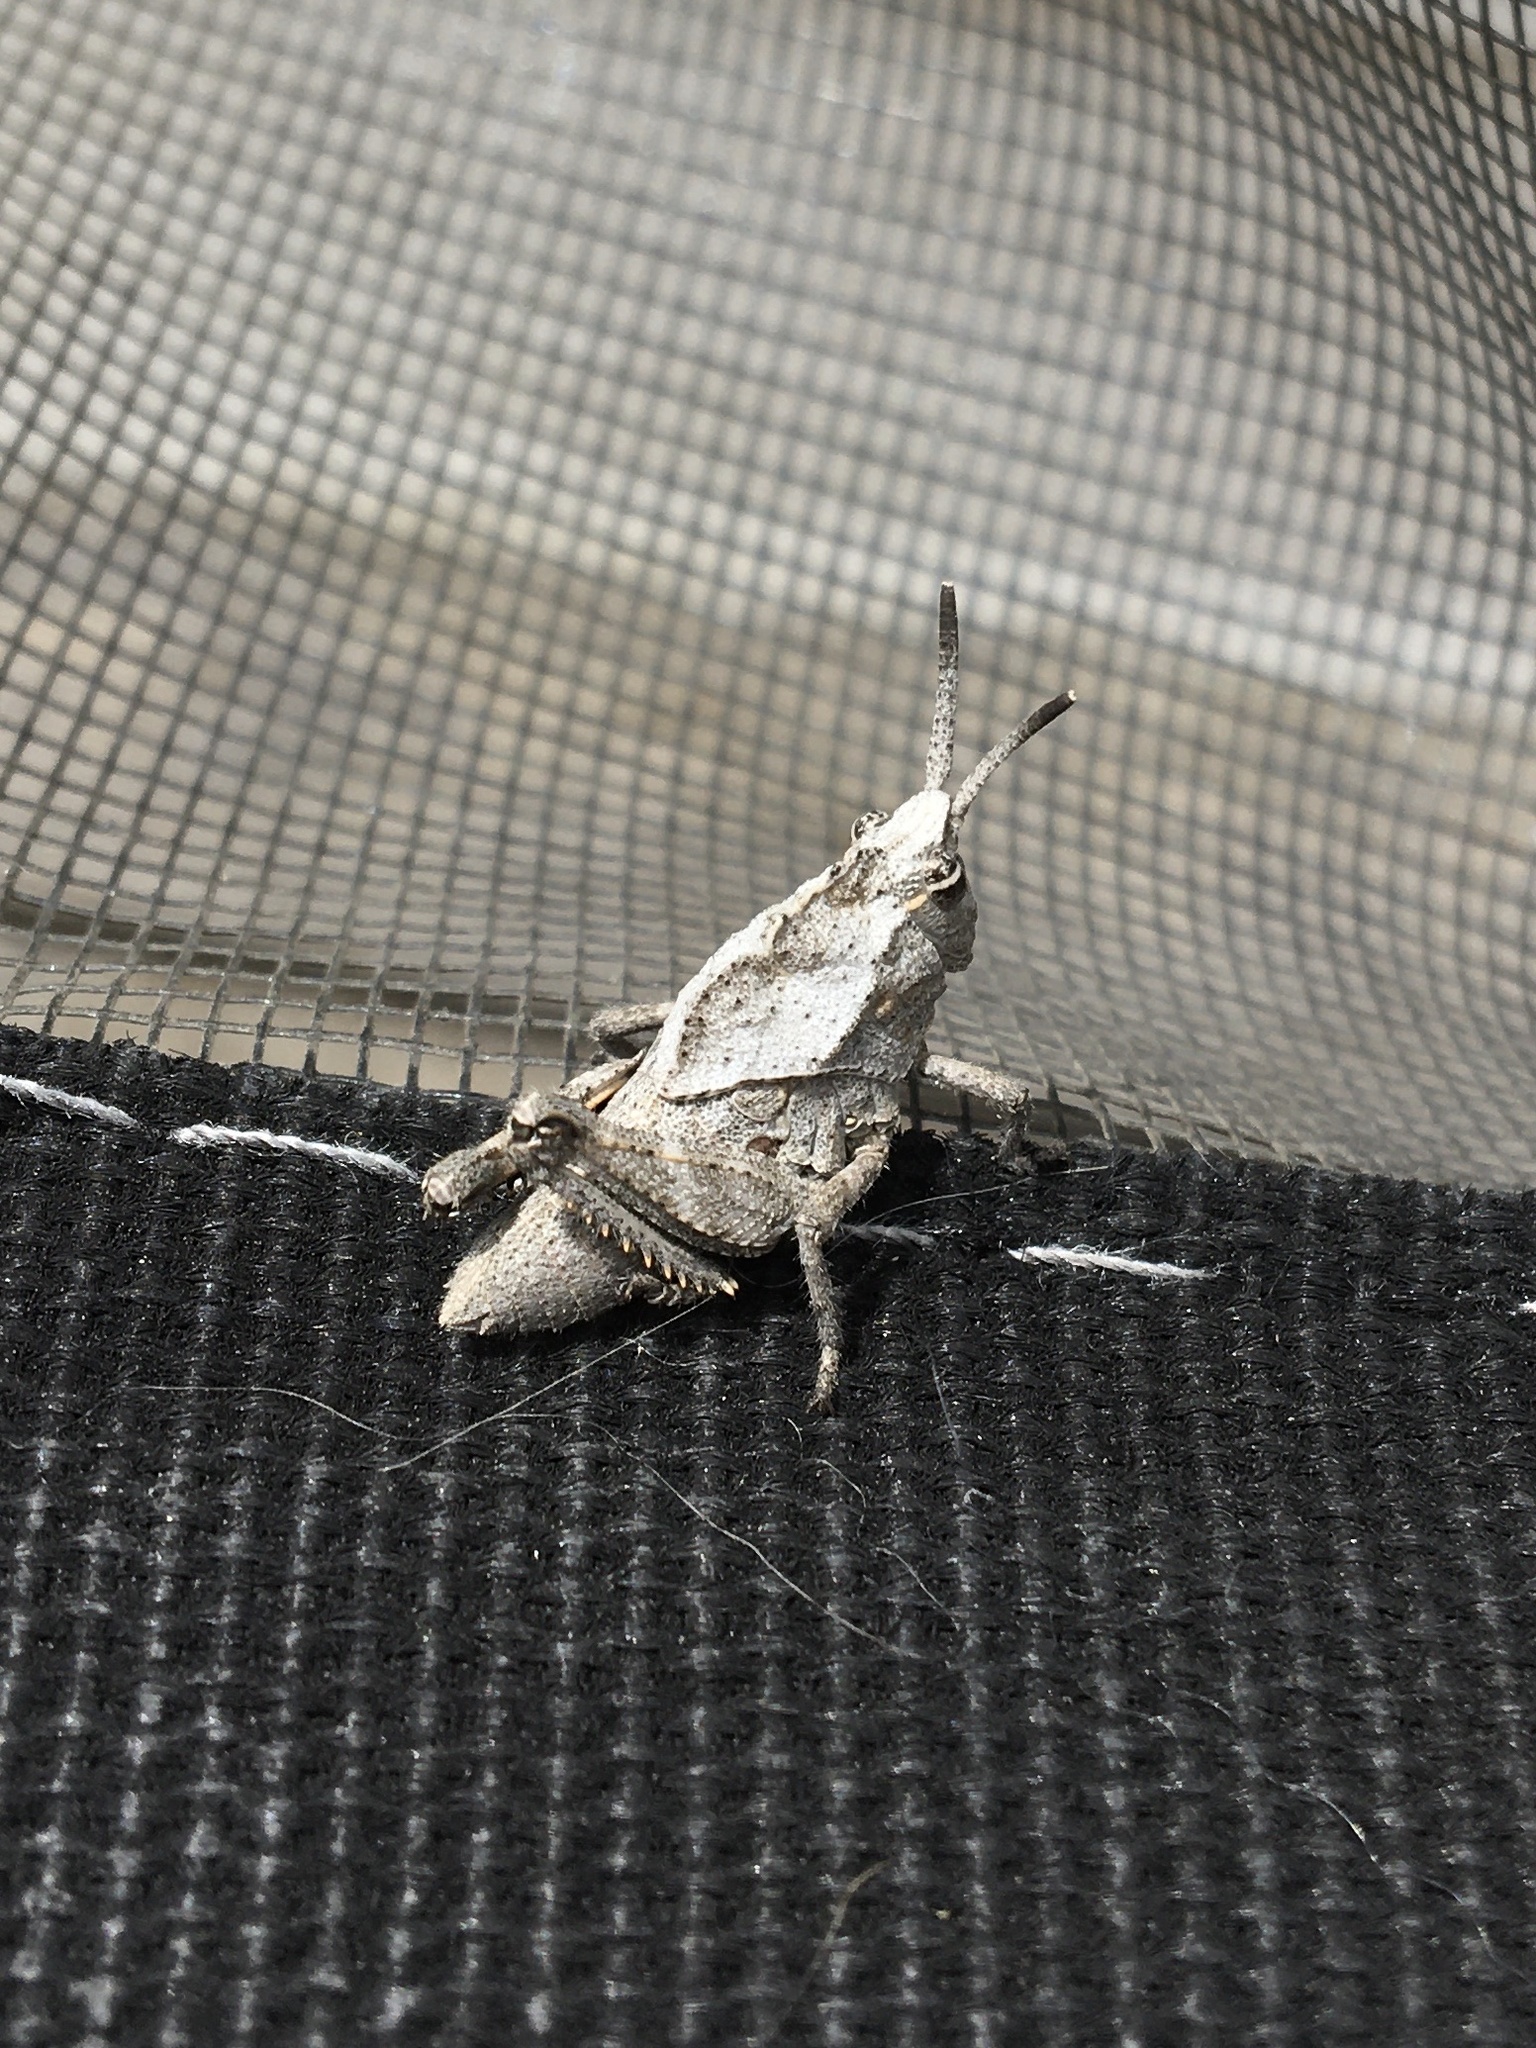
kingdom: Animalia
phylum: Arthropoda
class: Insecta
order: Orthoptera
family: Romaleidae
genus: Dracotettix
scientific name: Dracotettix monstrosus
